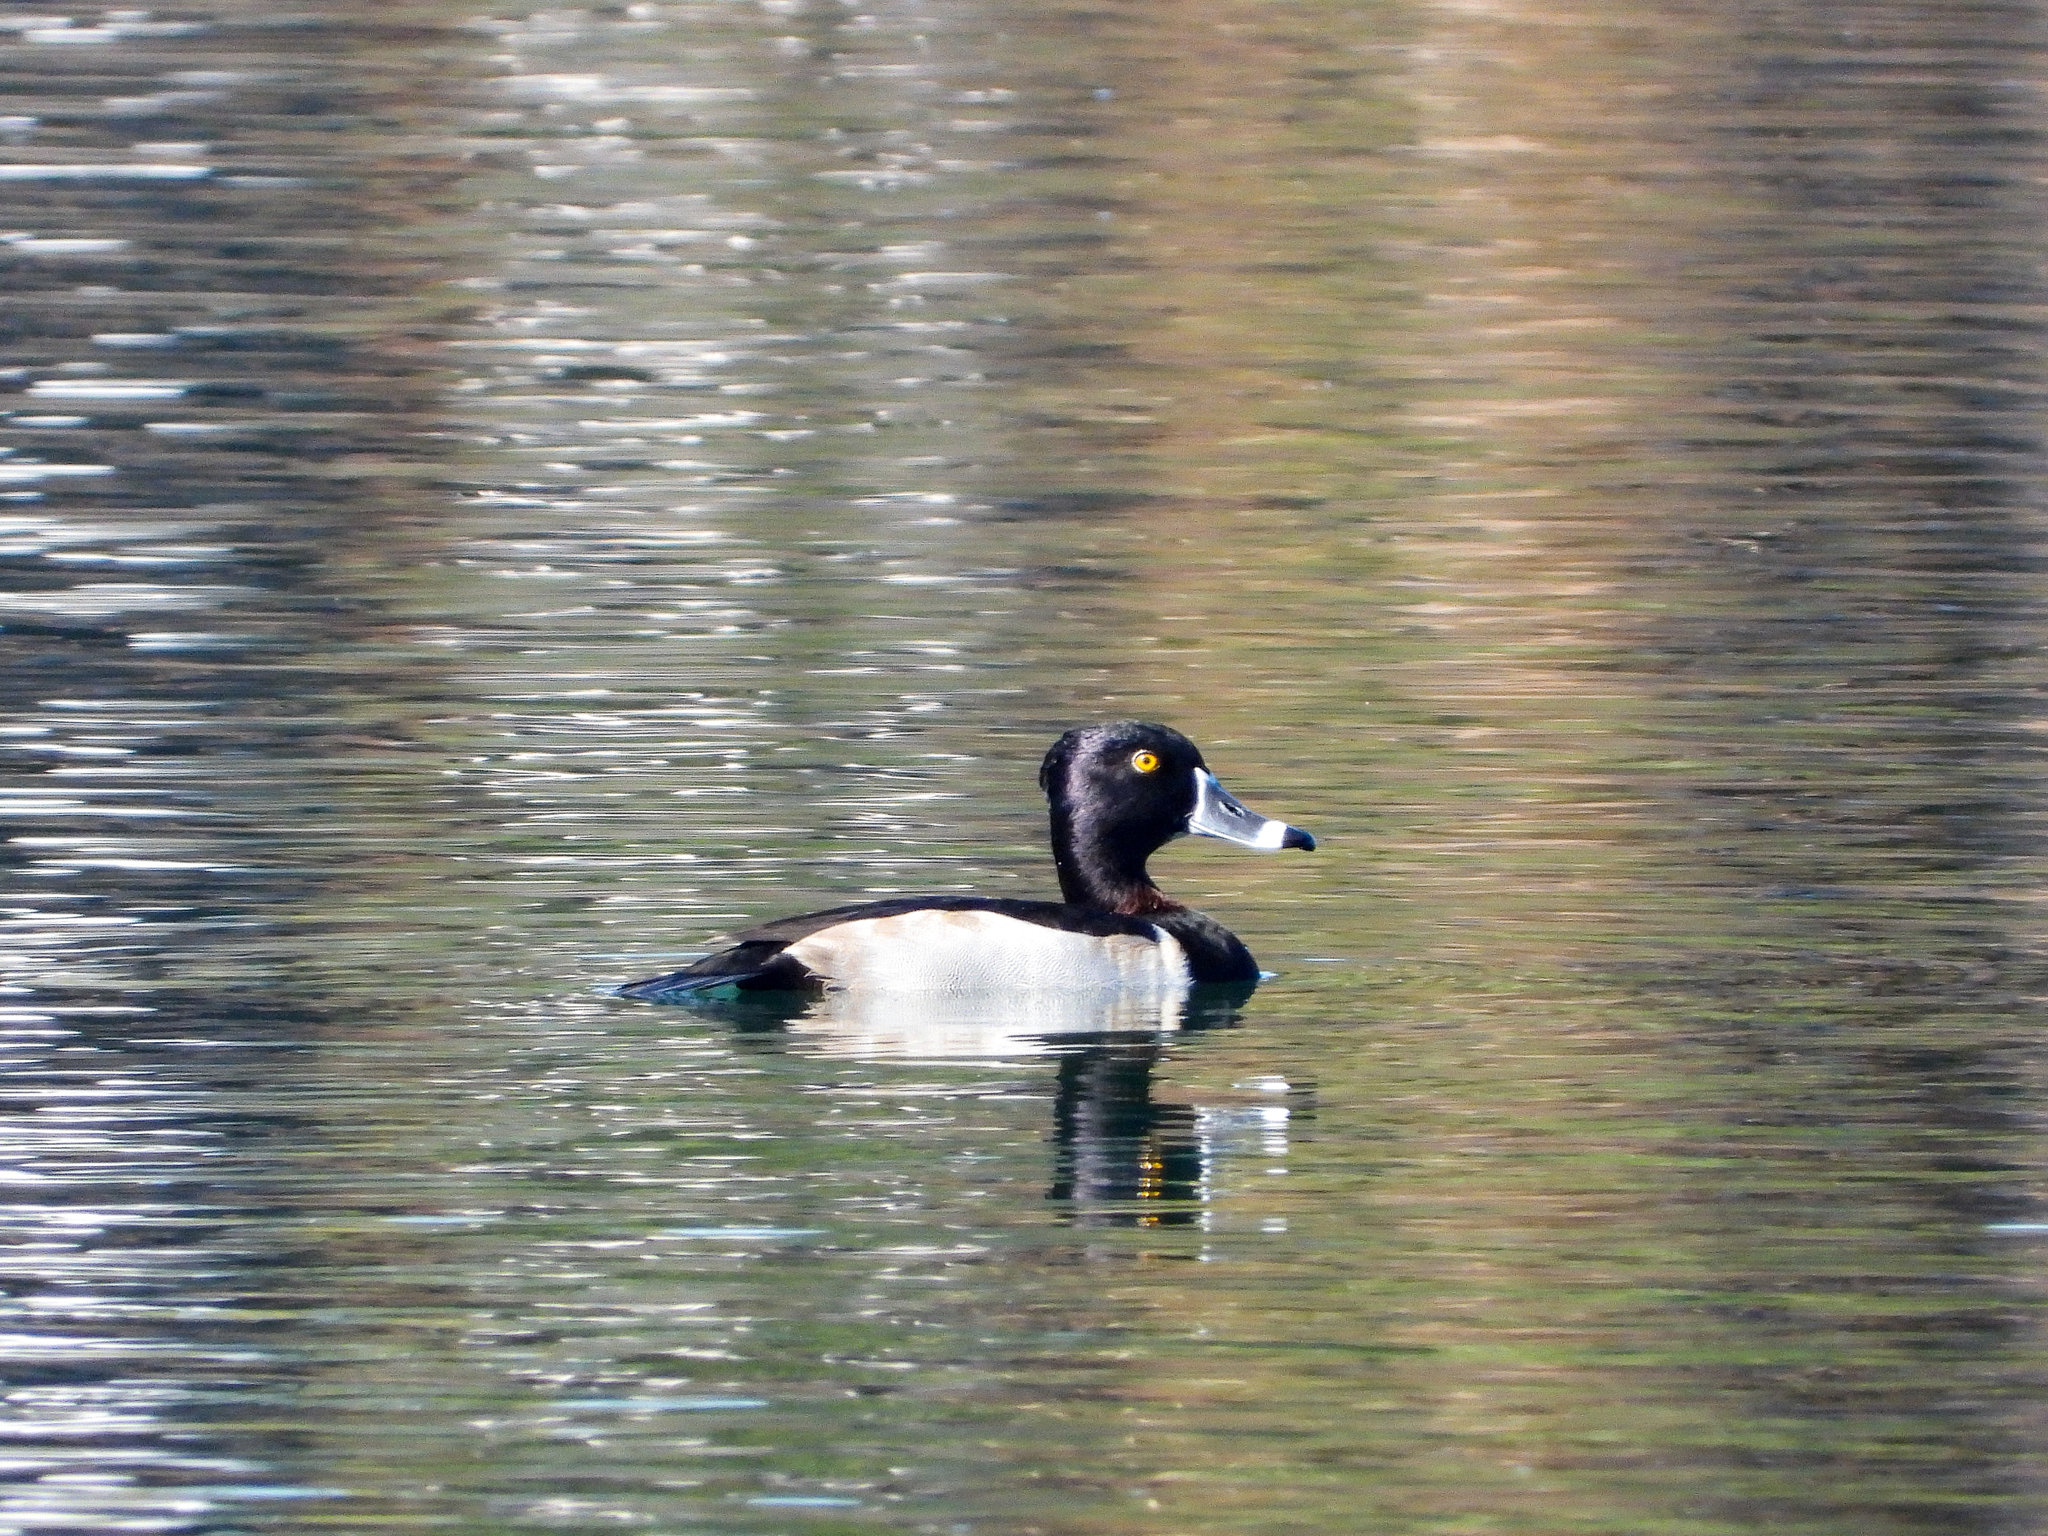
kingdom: Animalia
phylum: Chordata
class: Aves
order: Anseriformes
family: Anatidae
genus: Aythya
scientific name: Aythya collaris
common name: Ring-necked duck
